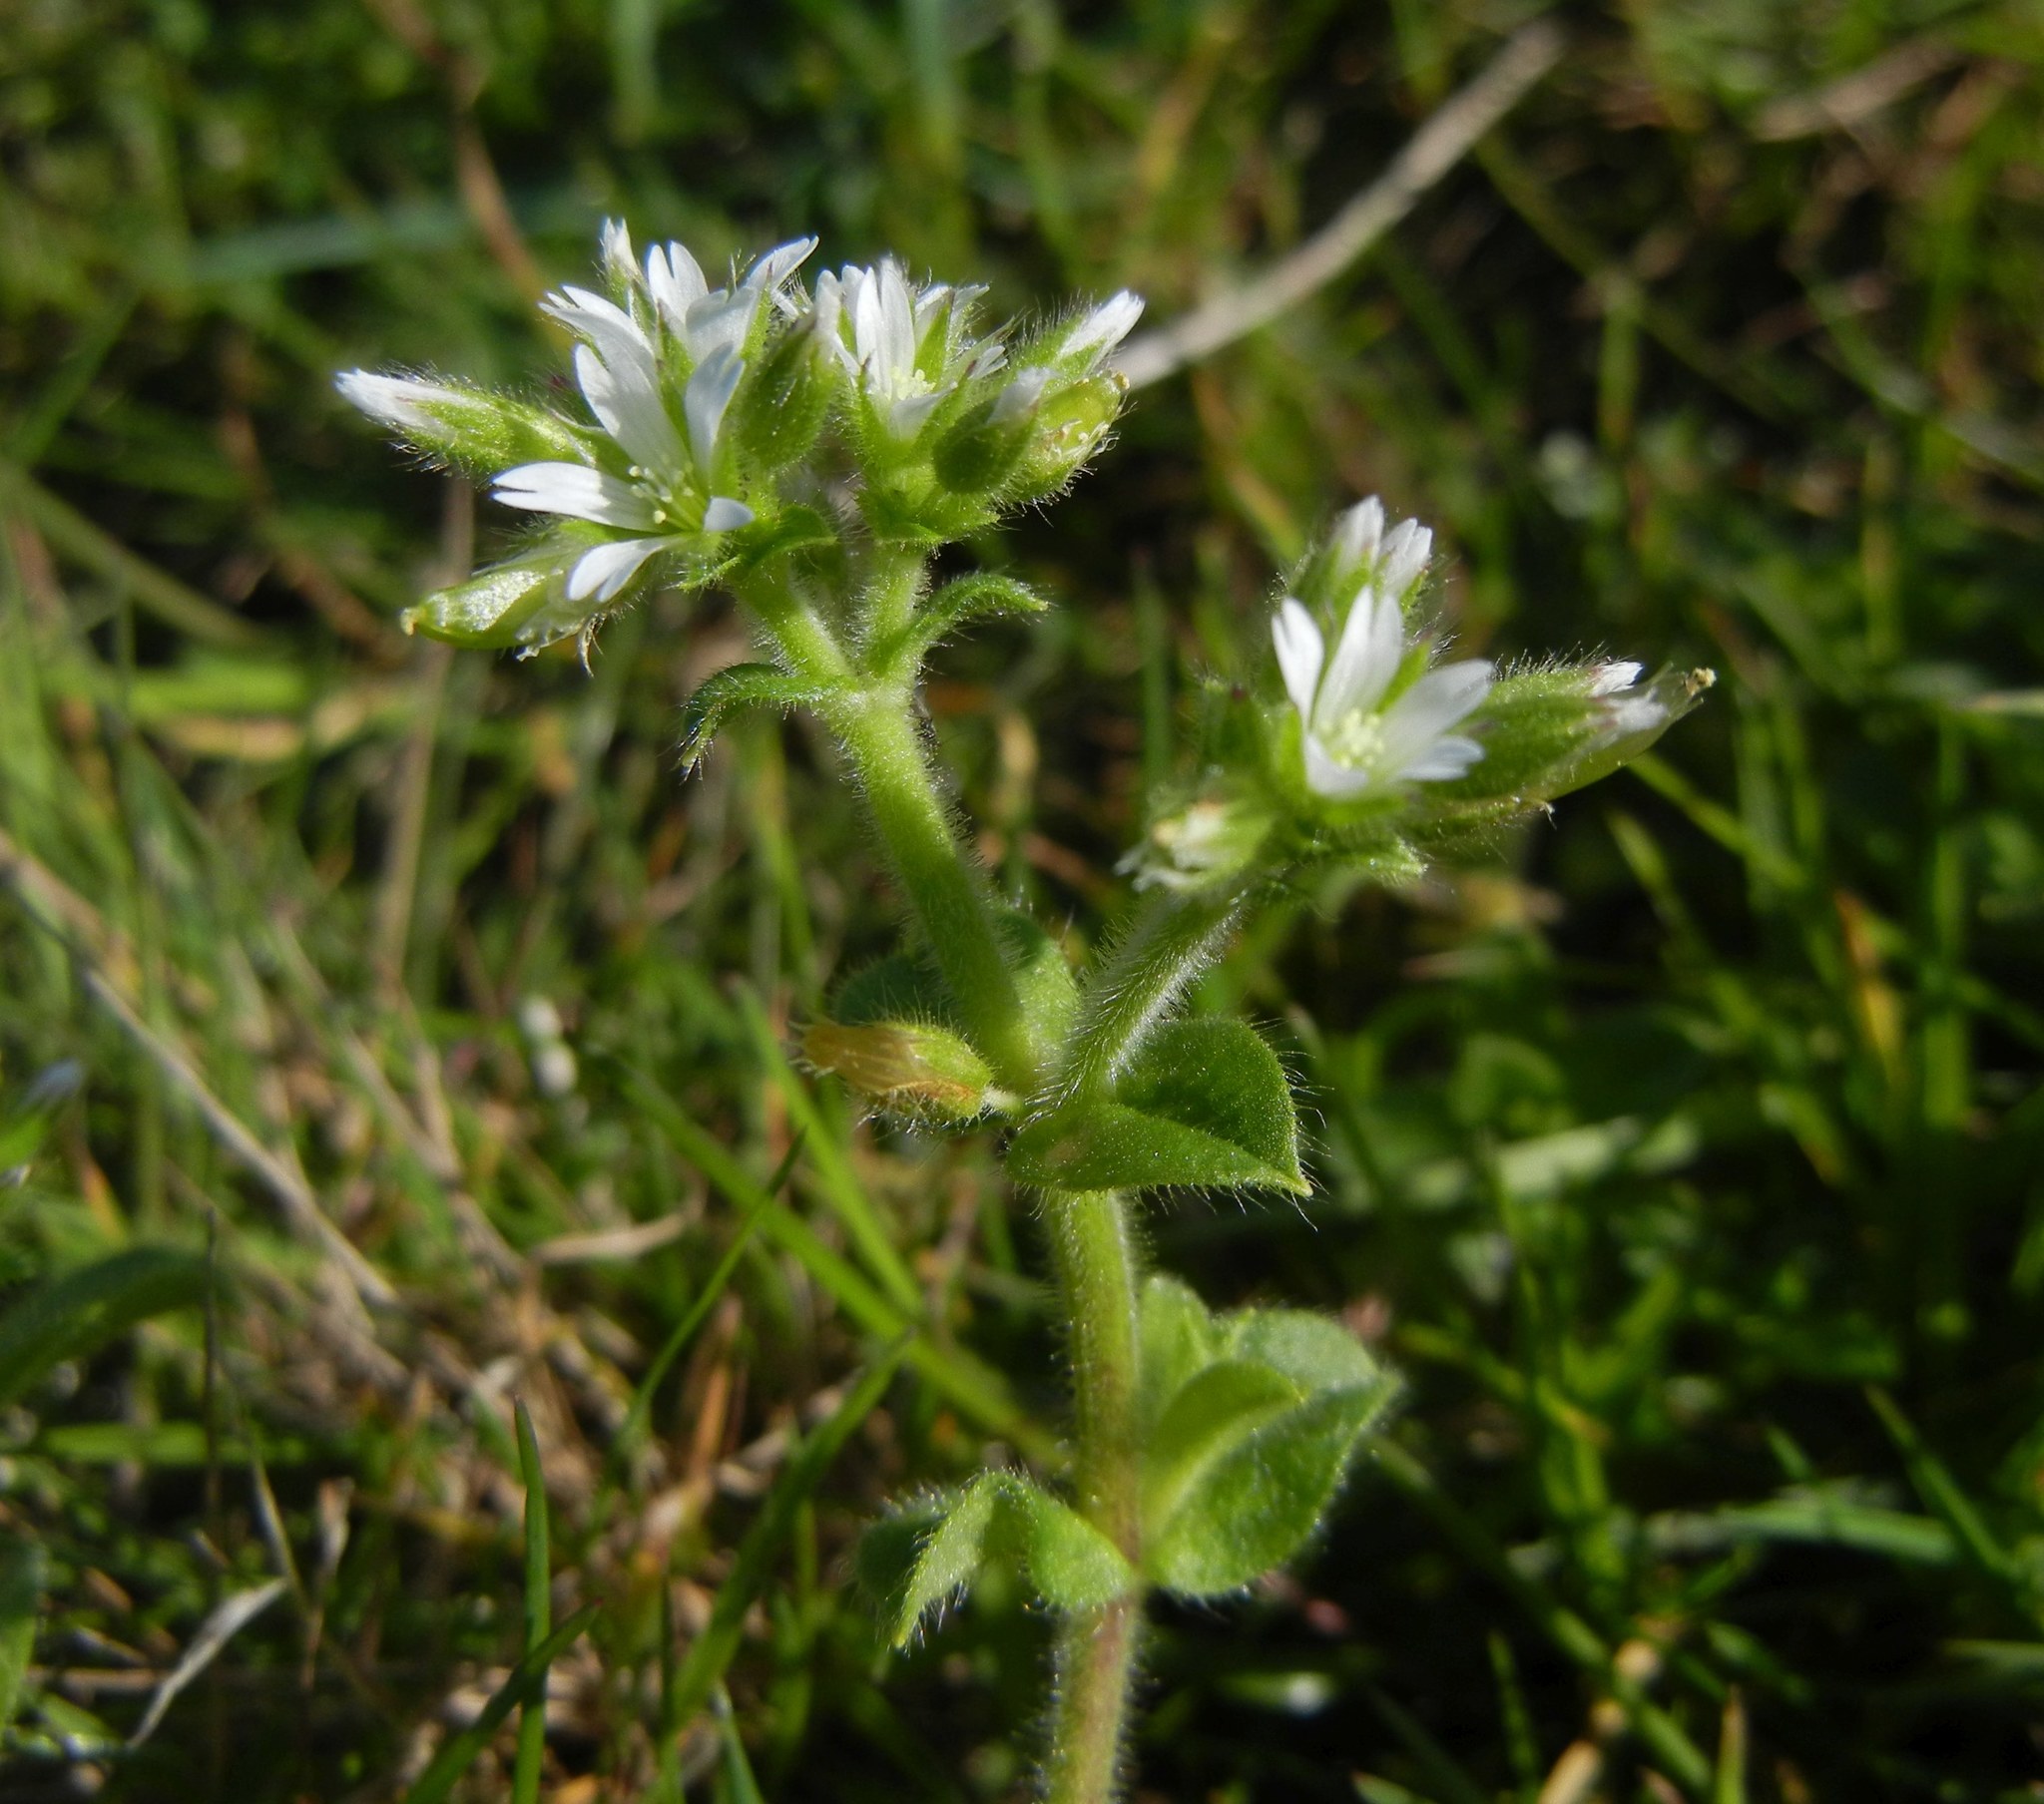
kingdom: Plantae
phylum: Tracheophyta
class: Magnoliopsida
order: Caryophyllales
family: Caryophyllaceae
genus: Cerastium
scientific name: Cerastium glomeratum
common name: Sticky chickweed
